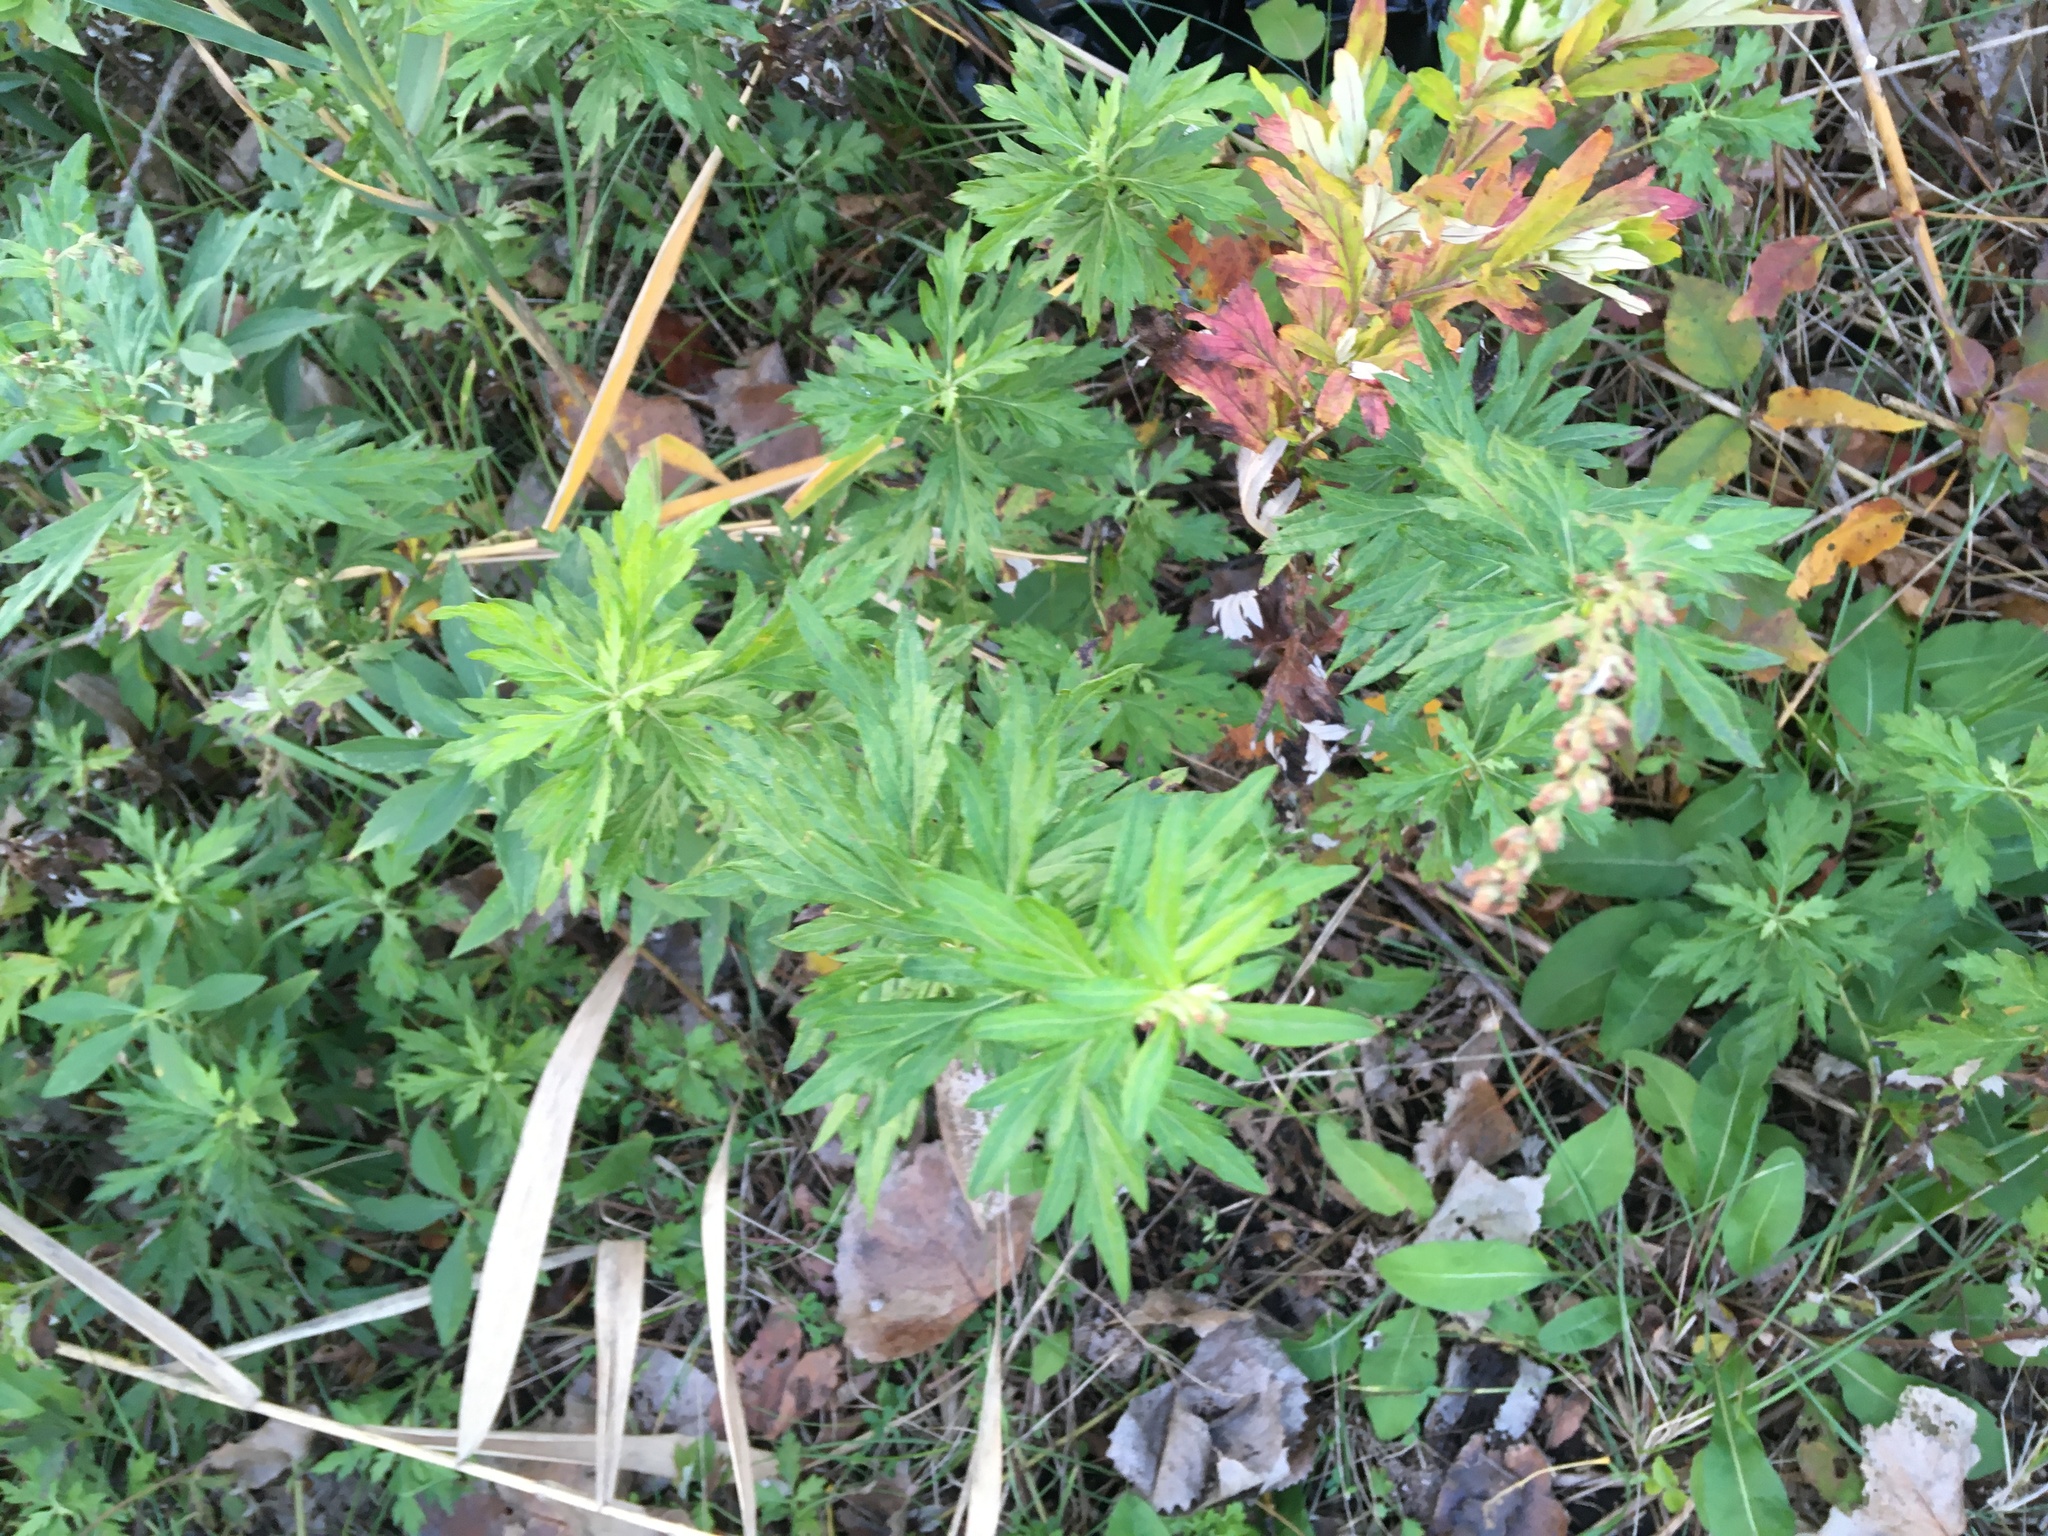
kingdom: Plantae
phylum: Tracheophyta
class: Magnoliopsida
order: Asterales
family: Asteraceae
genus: Artemisia
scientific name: Artemisia vulgaris
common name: Mugwort
